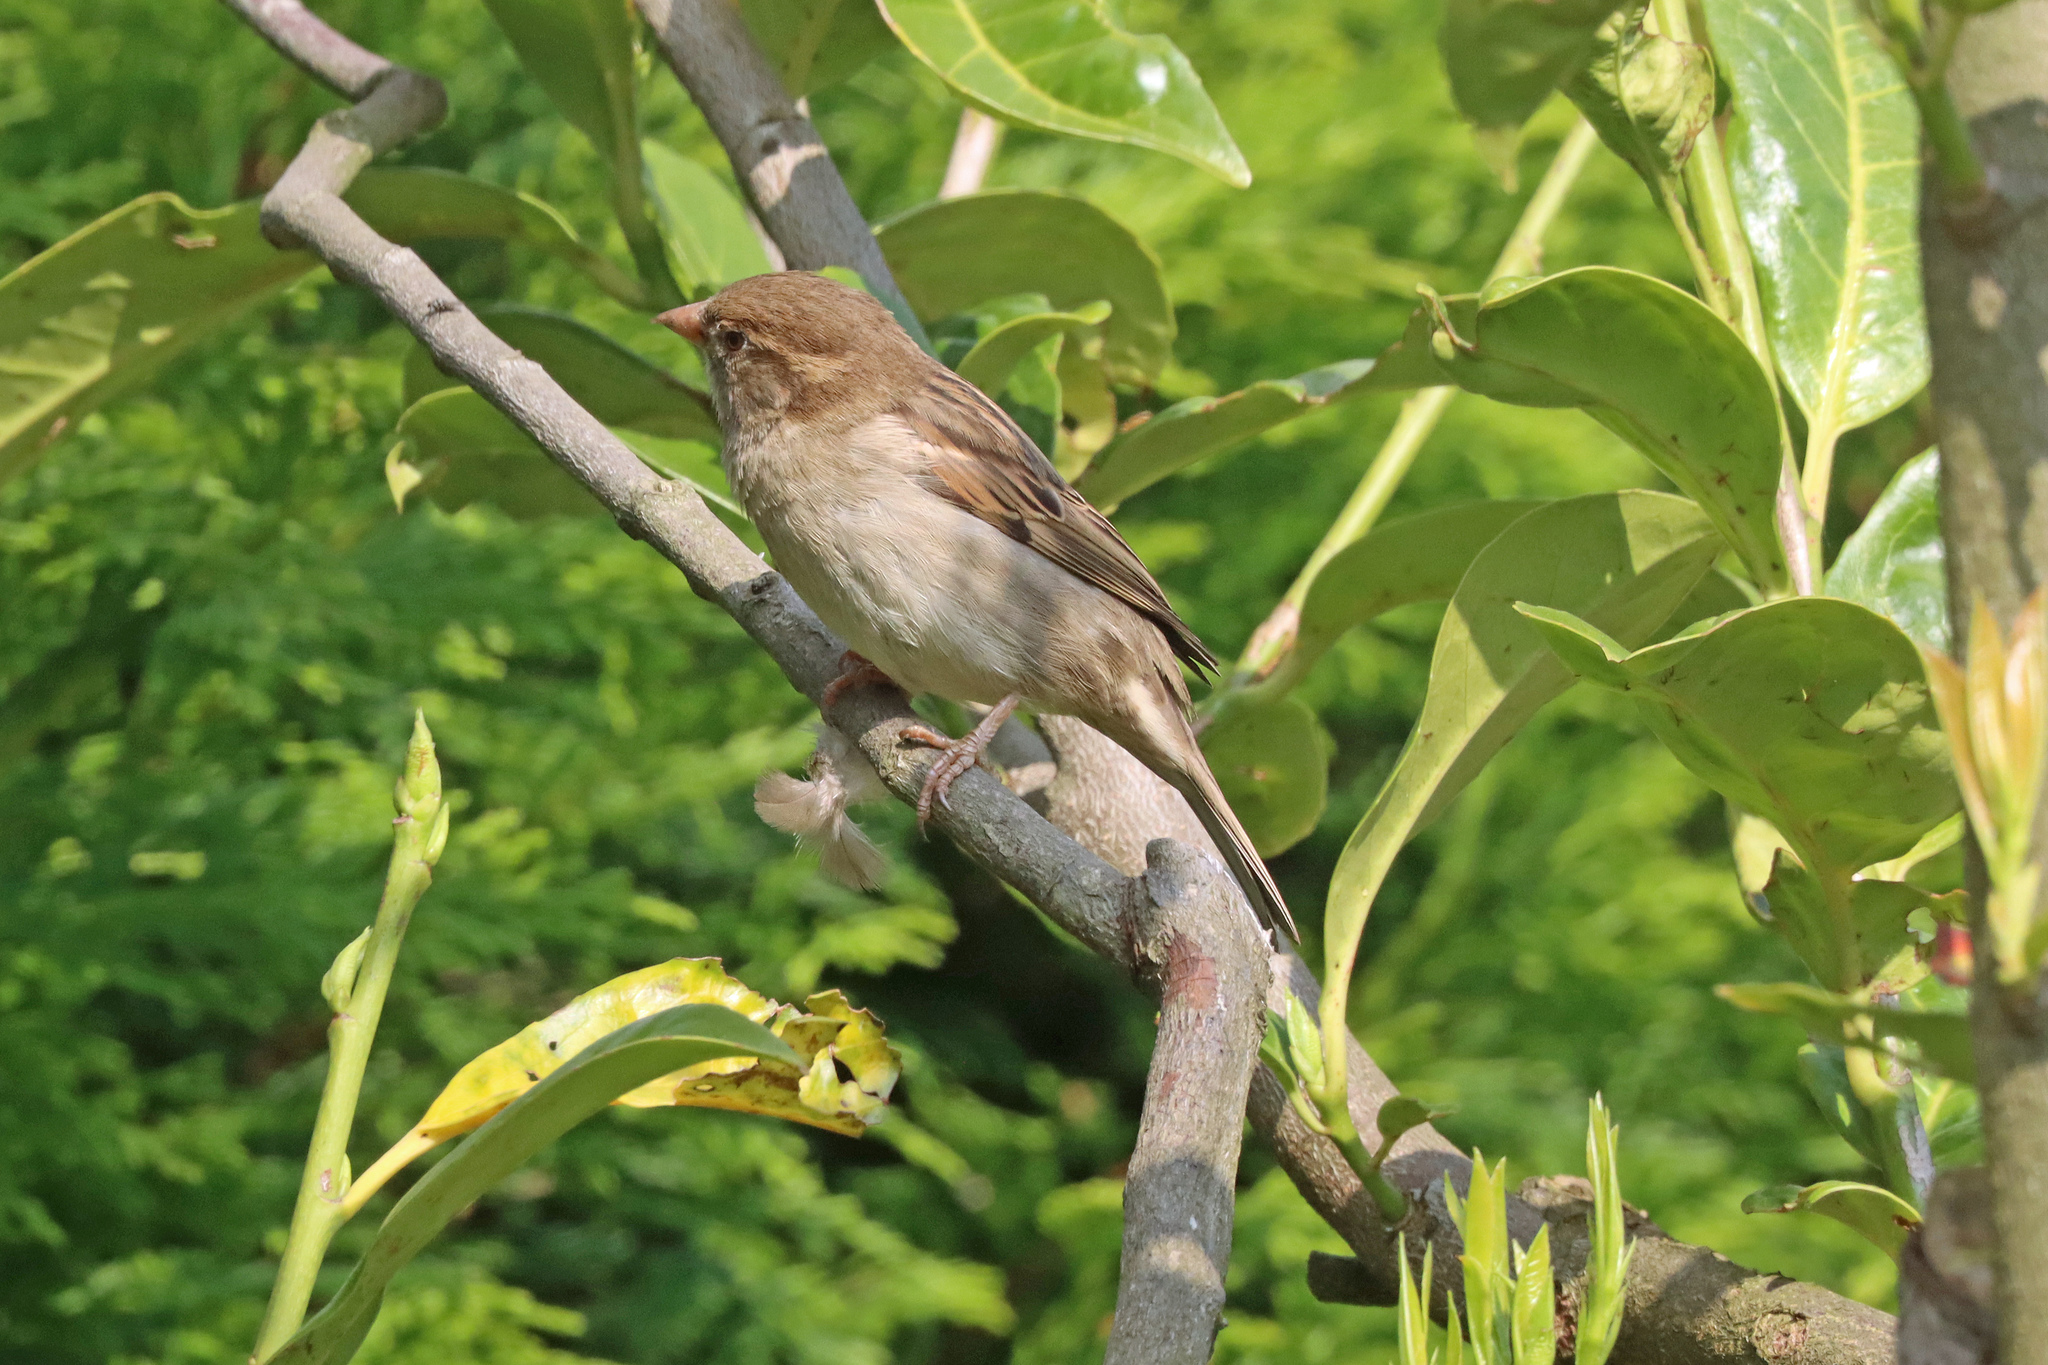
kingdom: Animalia
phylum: Chordata
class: Aves
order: Passeriformes
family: Passeridae
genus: Passer
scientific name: Passer domesticus
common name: House sparrow
